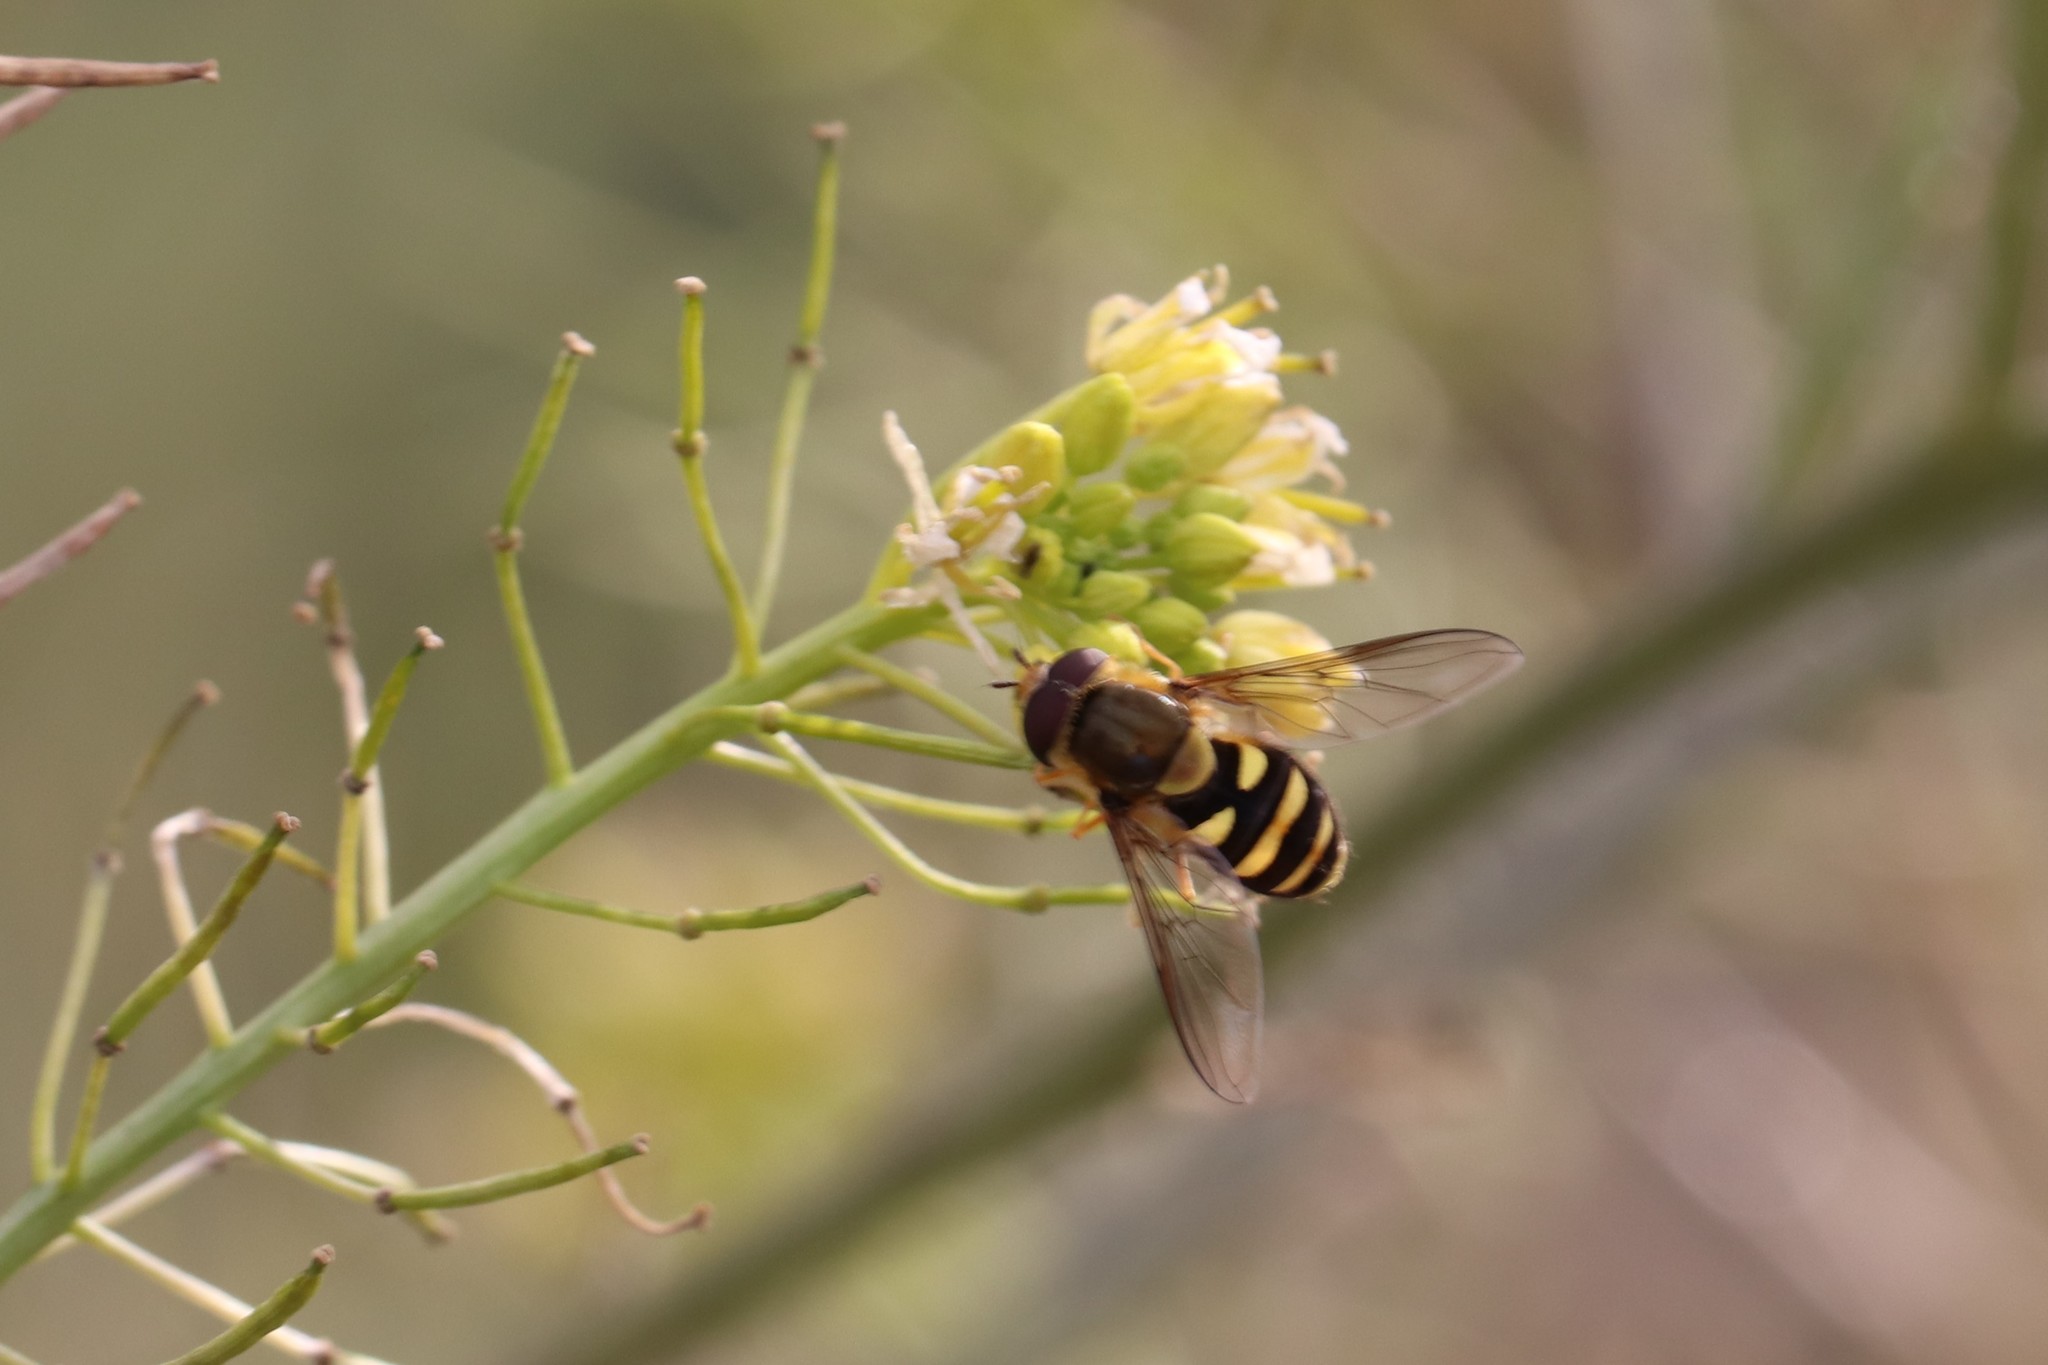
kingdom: Animalia
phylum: Arthropoda
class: Insecta
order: Diptera
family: Syrphidae
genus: Eupeodes
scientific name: Eupeodes fumipennis
